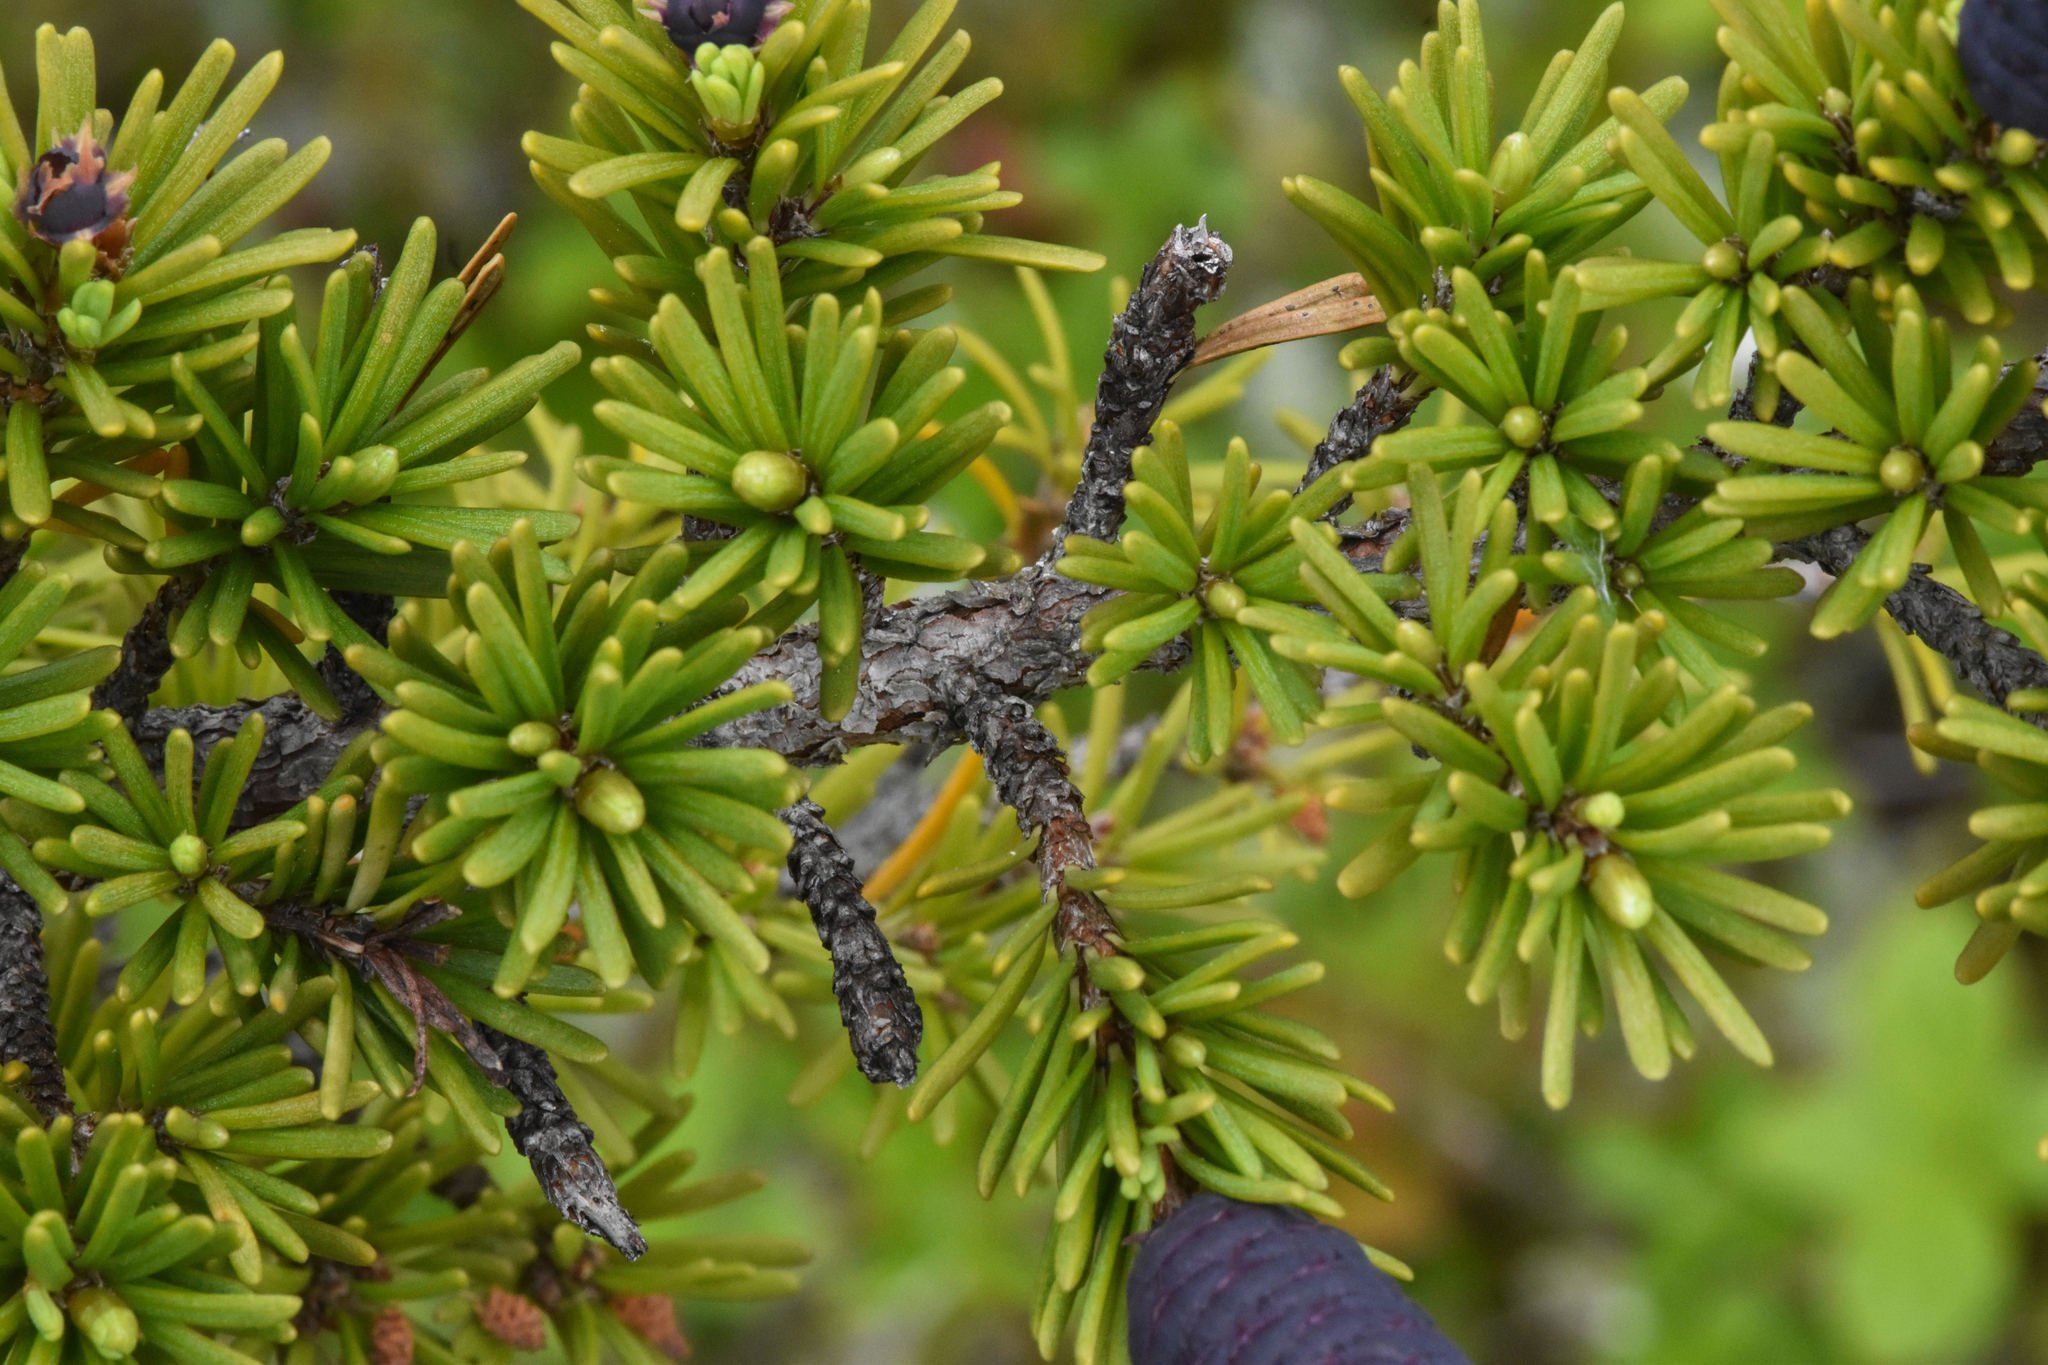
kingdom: Plantae
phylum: Tracheophyta
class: Pinopsida
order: Pinales
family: Pinaceae
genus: Tsuga
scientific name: Tsuga mertensiana
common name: Mountain hemlock
